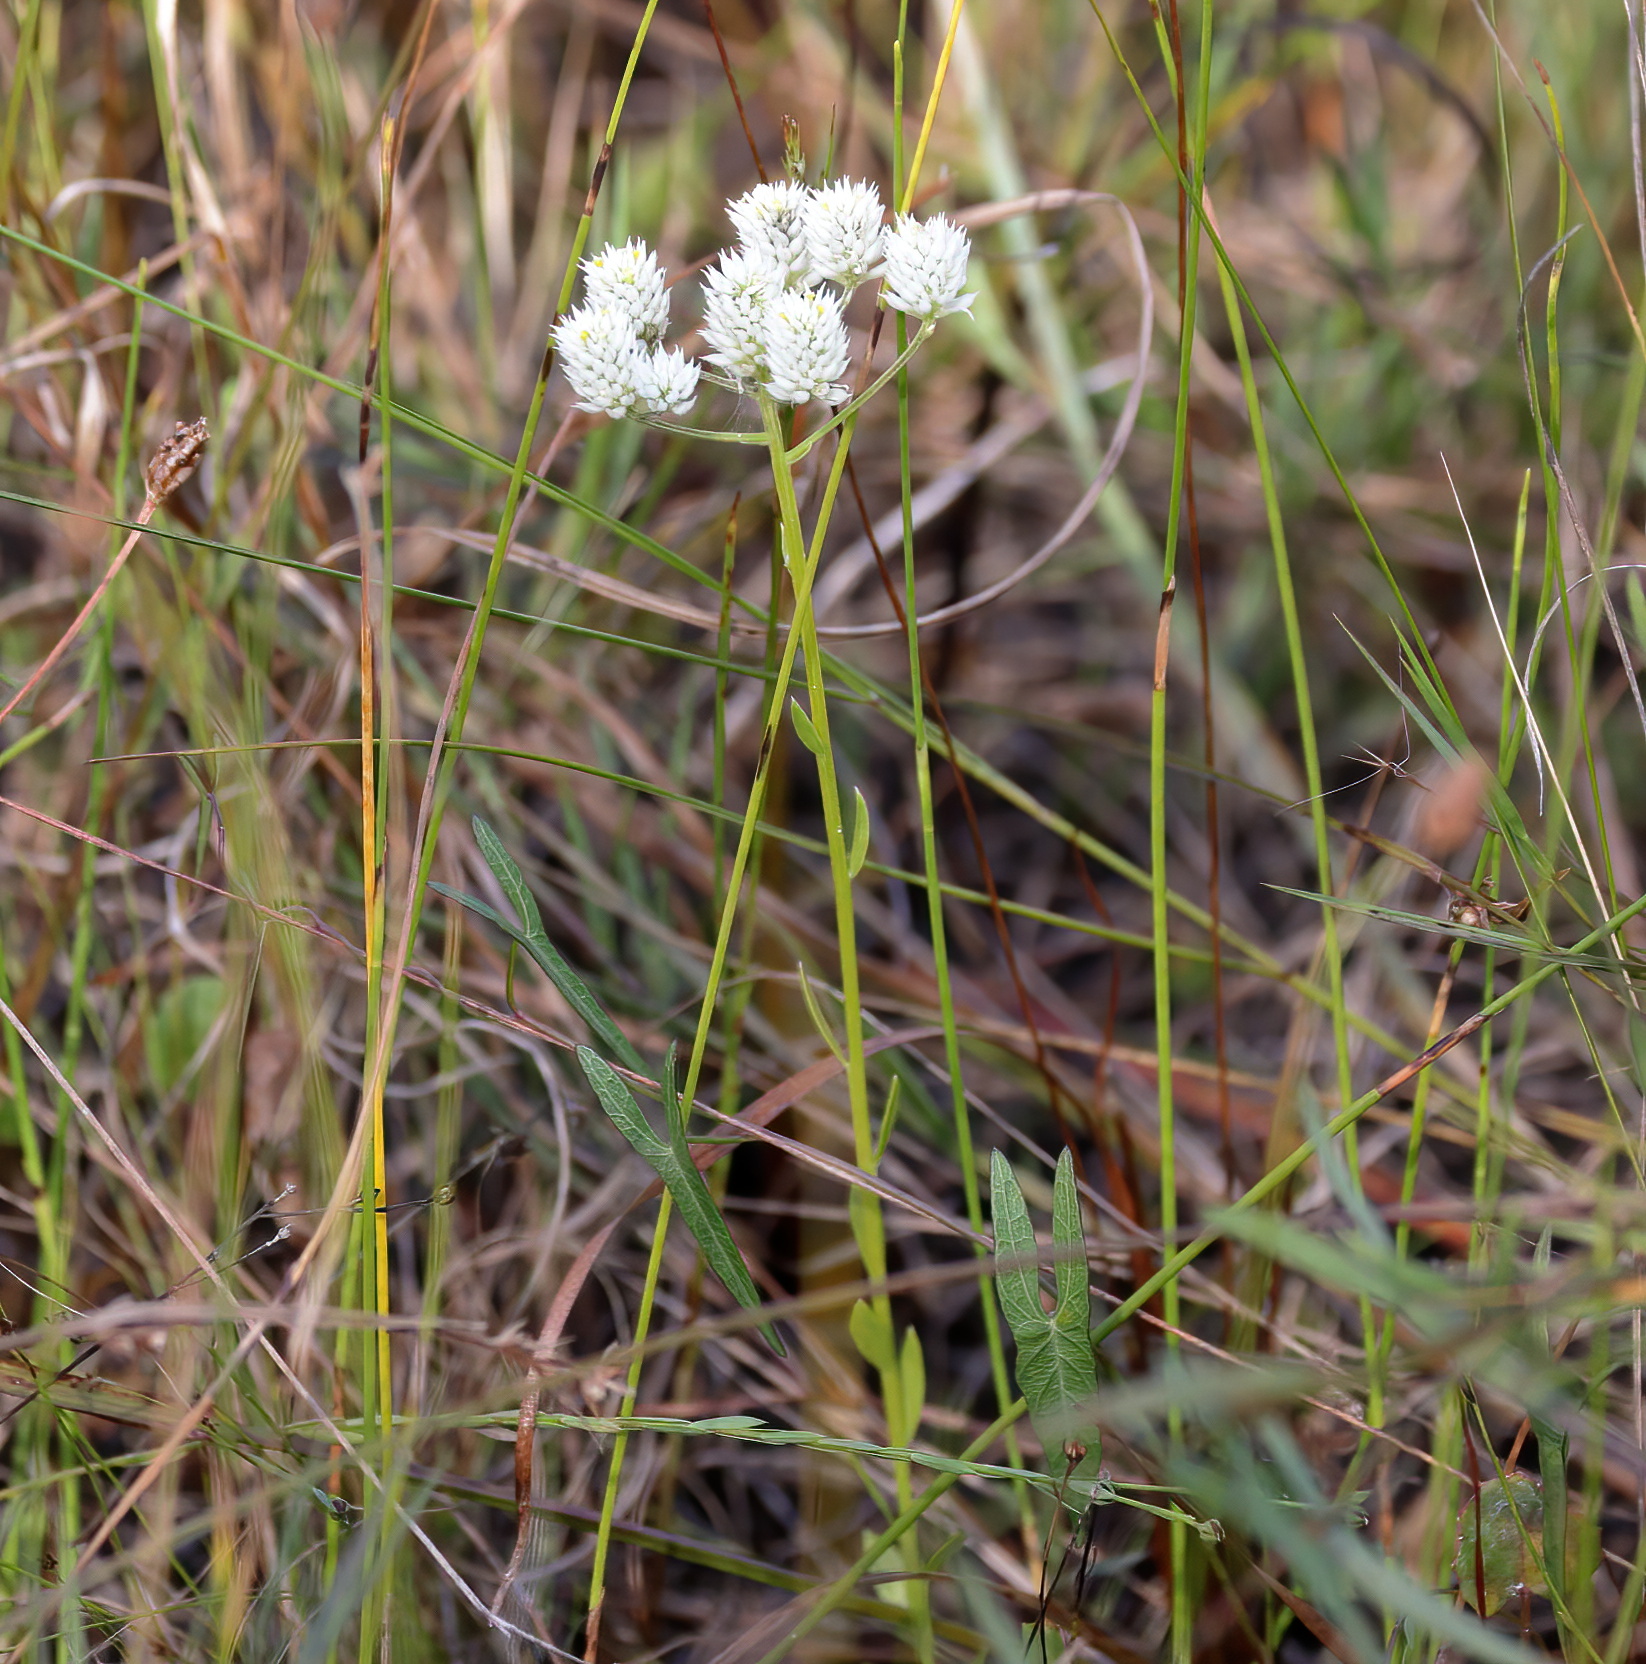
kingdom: Plantae
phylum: Tracheophyta
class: Magnoliopsida
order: Fabales
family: Polygalaceae
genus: Polygala
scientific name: Polygala baldwinii
